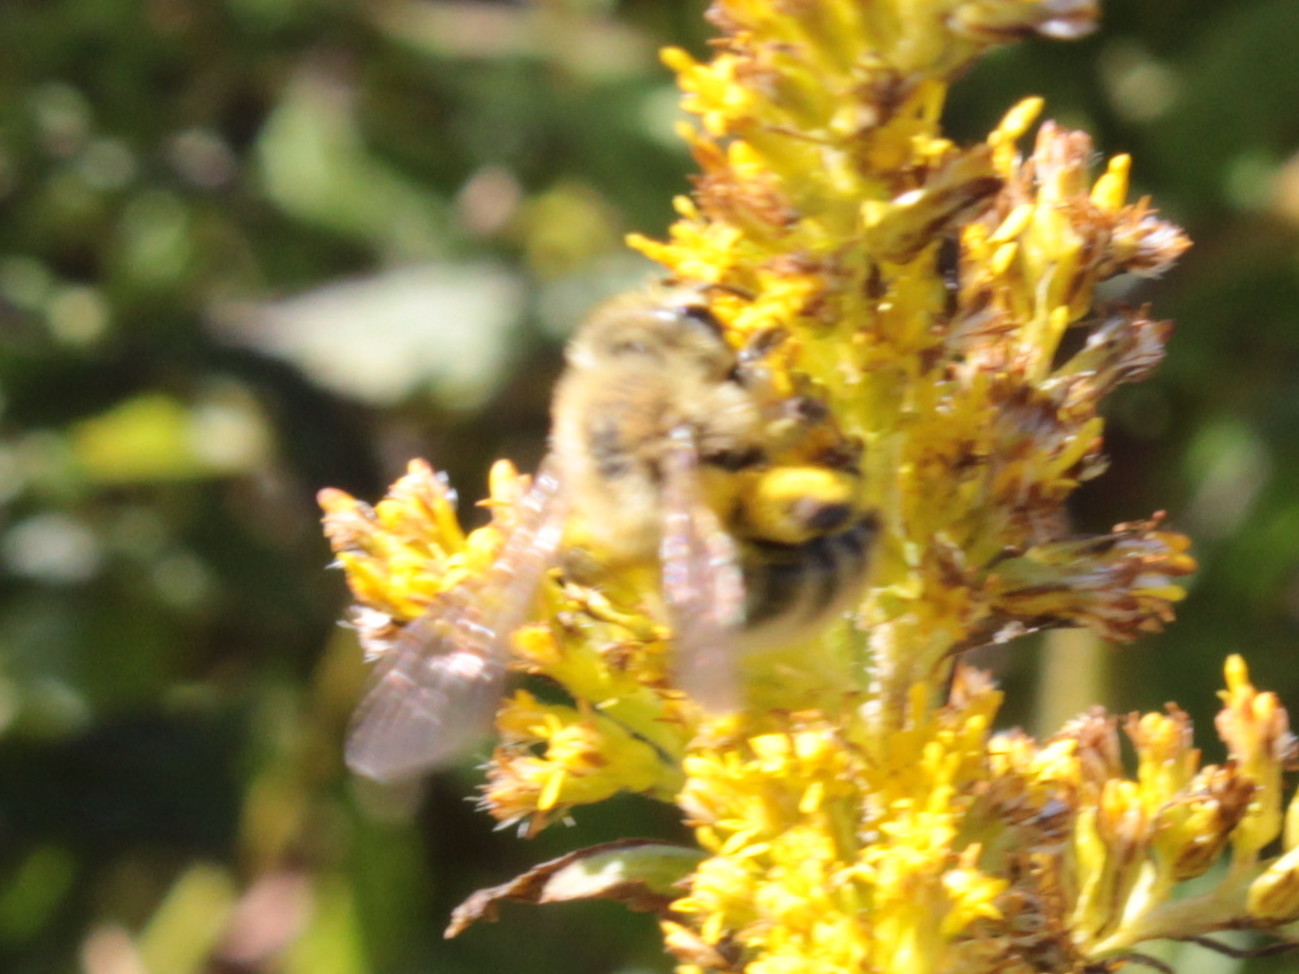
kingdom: Animalia
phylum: Arthropoda
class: Insecta
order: Hymenoptera
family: Andrenidae
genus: Andrena
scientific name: Andrena hirticincta
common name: Hairy-banded mining bee
